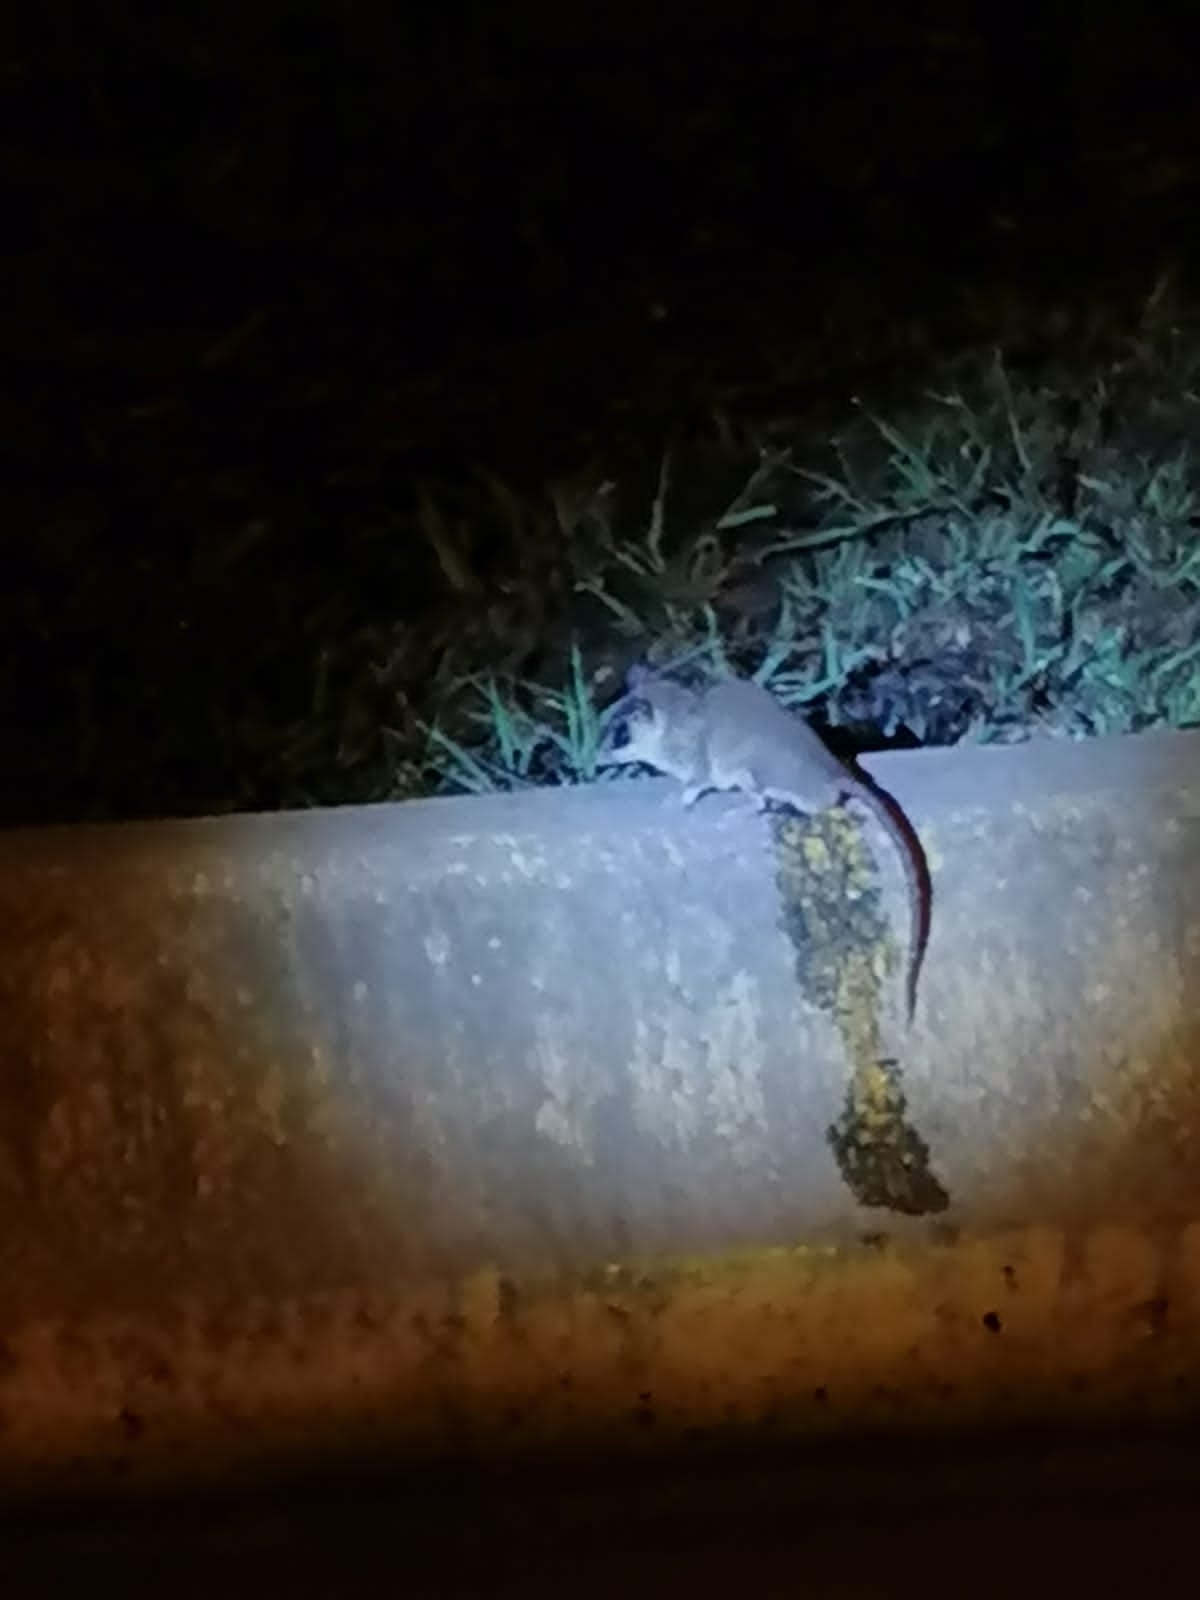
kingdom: Animalia
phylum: Chordata
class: Mammalia
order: Didelphimorphia
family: Didelphidae
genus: Marmosa
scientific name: Marmosa mexicana
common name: Mexican mouse opossum
